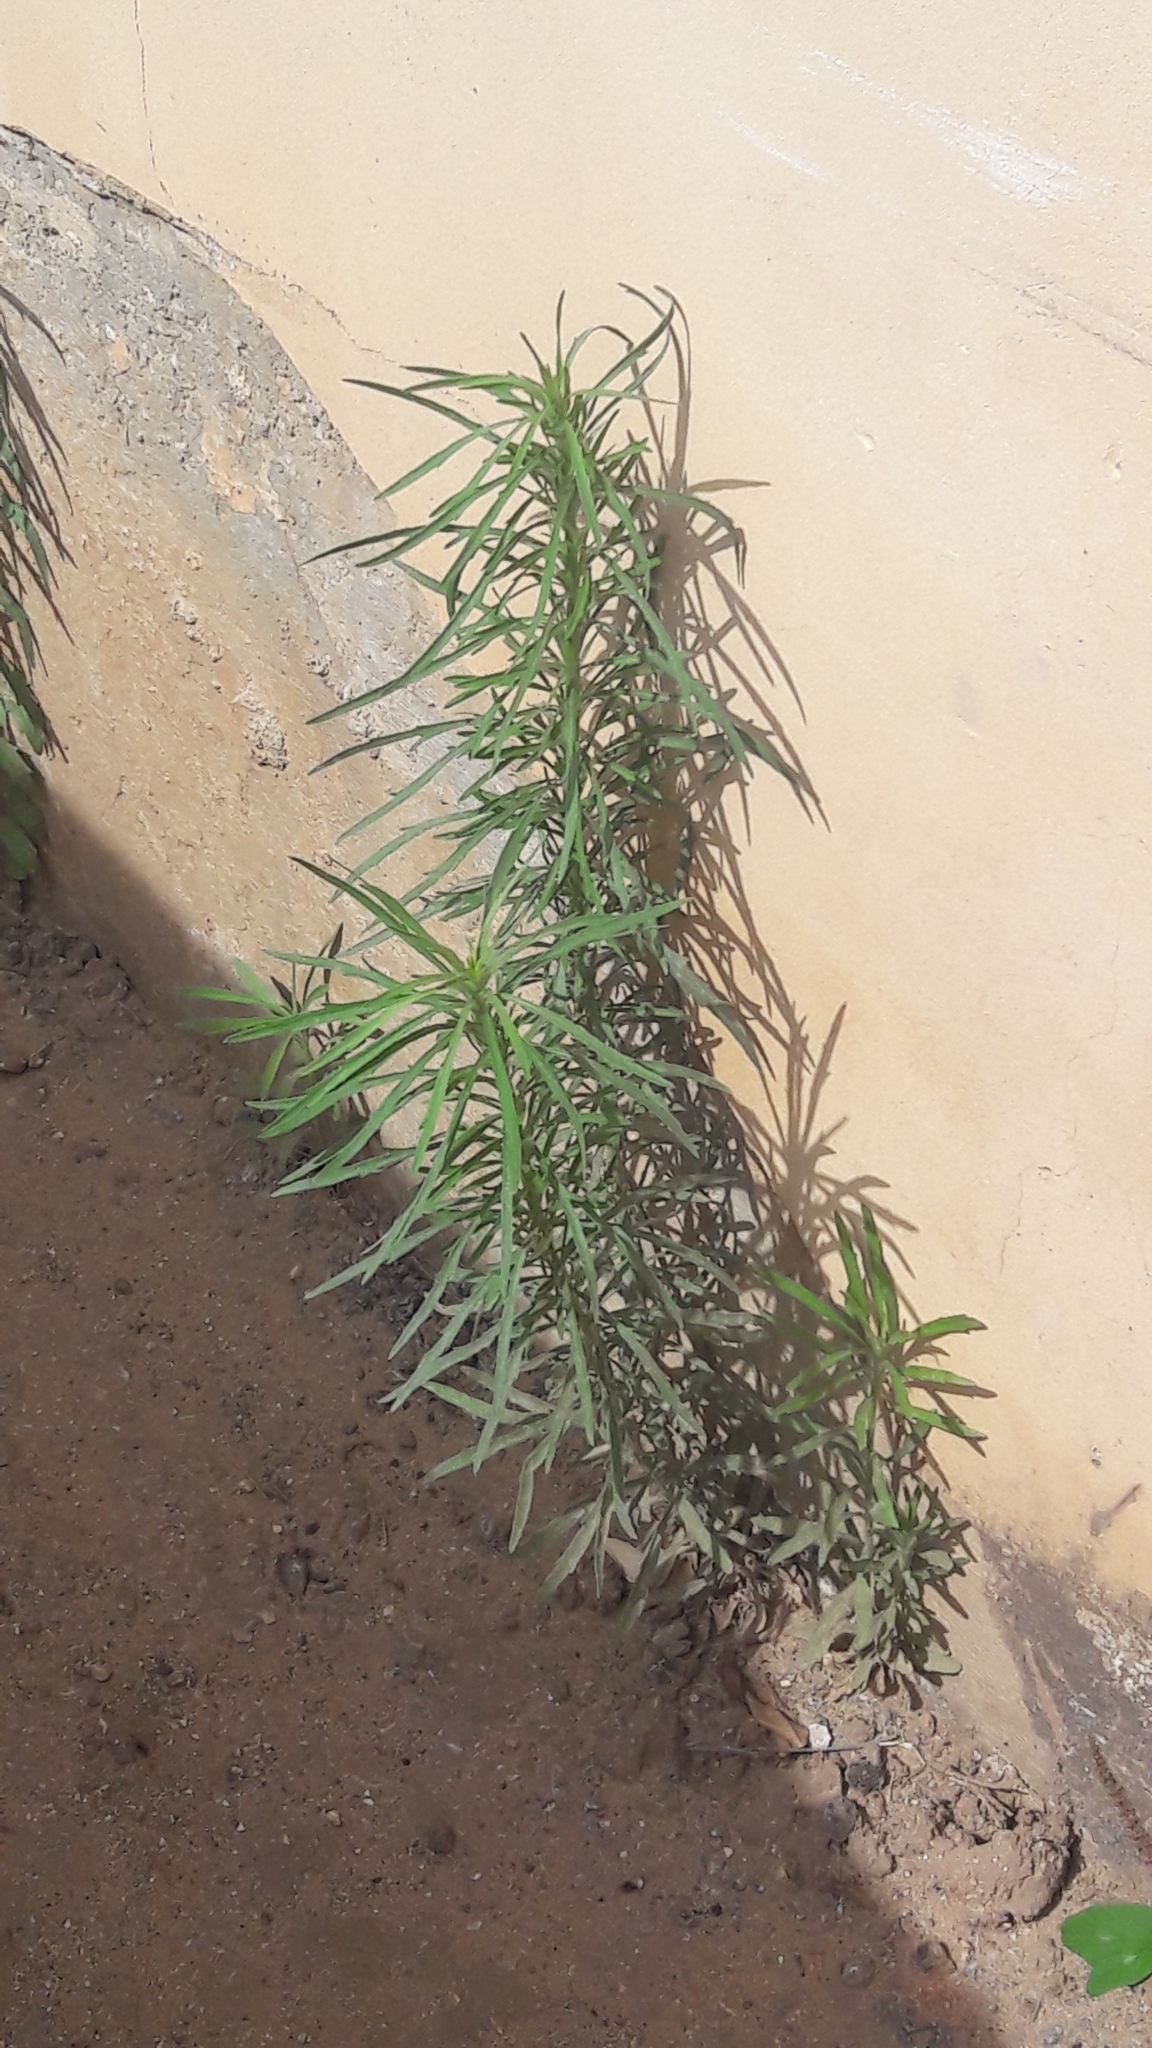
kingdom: Plantae
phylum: Tracheophyta
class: Magnoliopsida
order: Asterales
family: Asteraceae
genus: Erigeron
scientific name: Erigeron bonariensis
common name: Argentine fleabane
